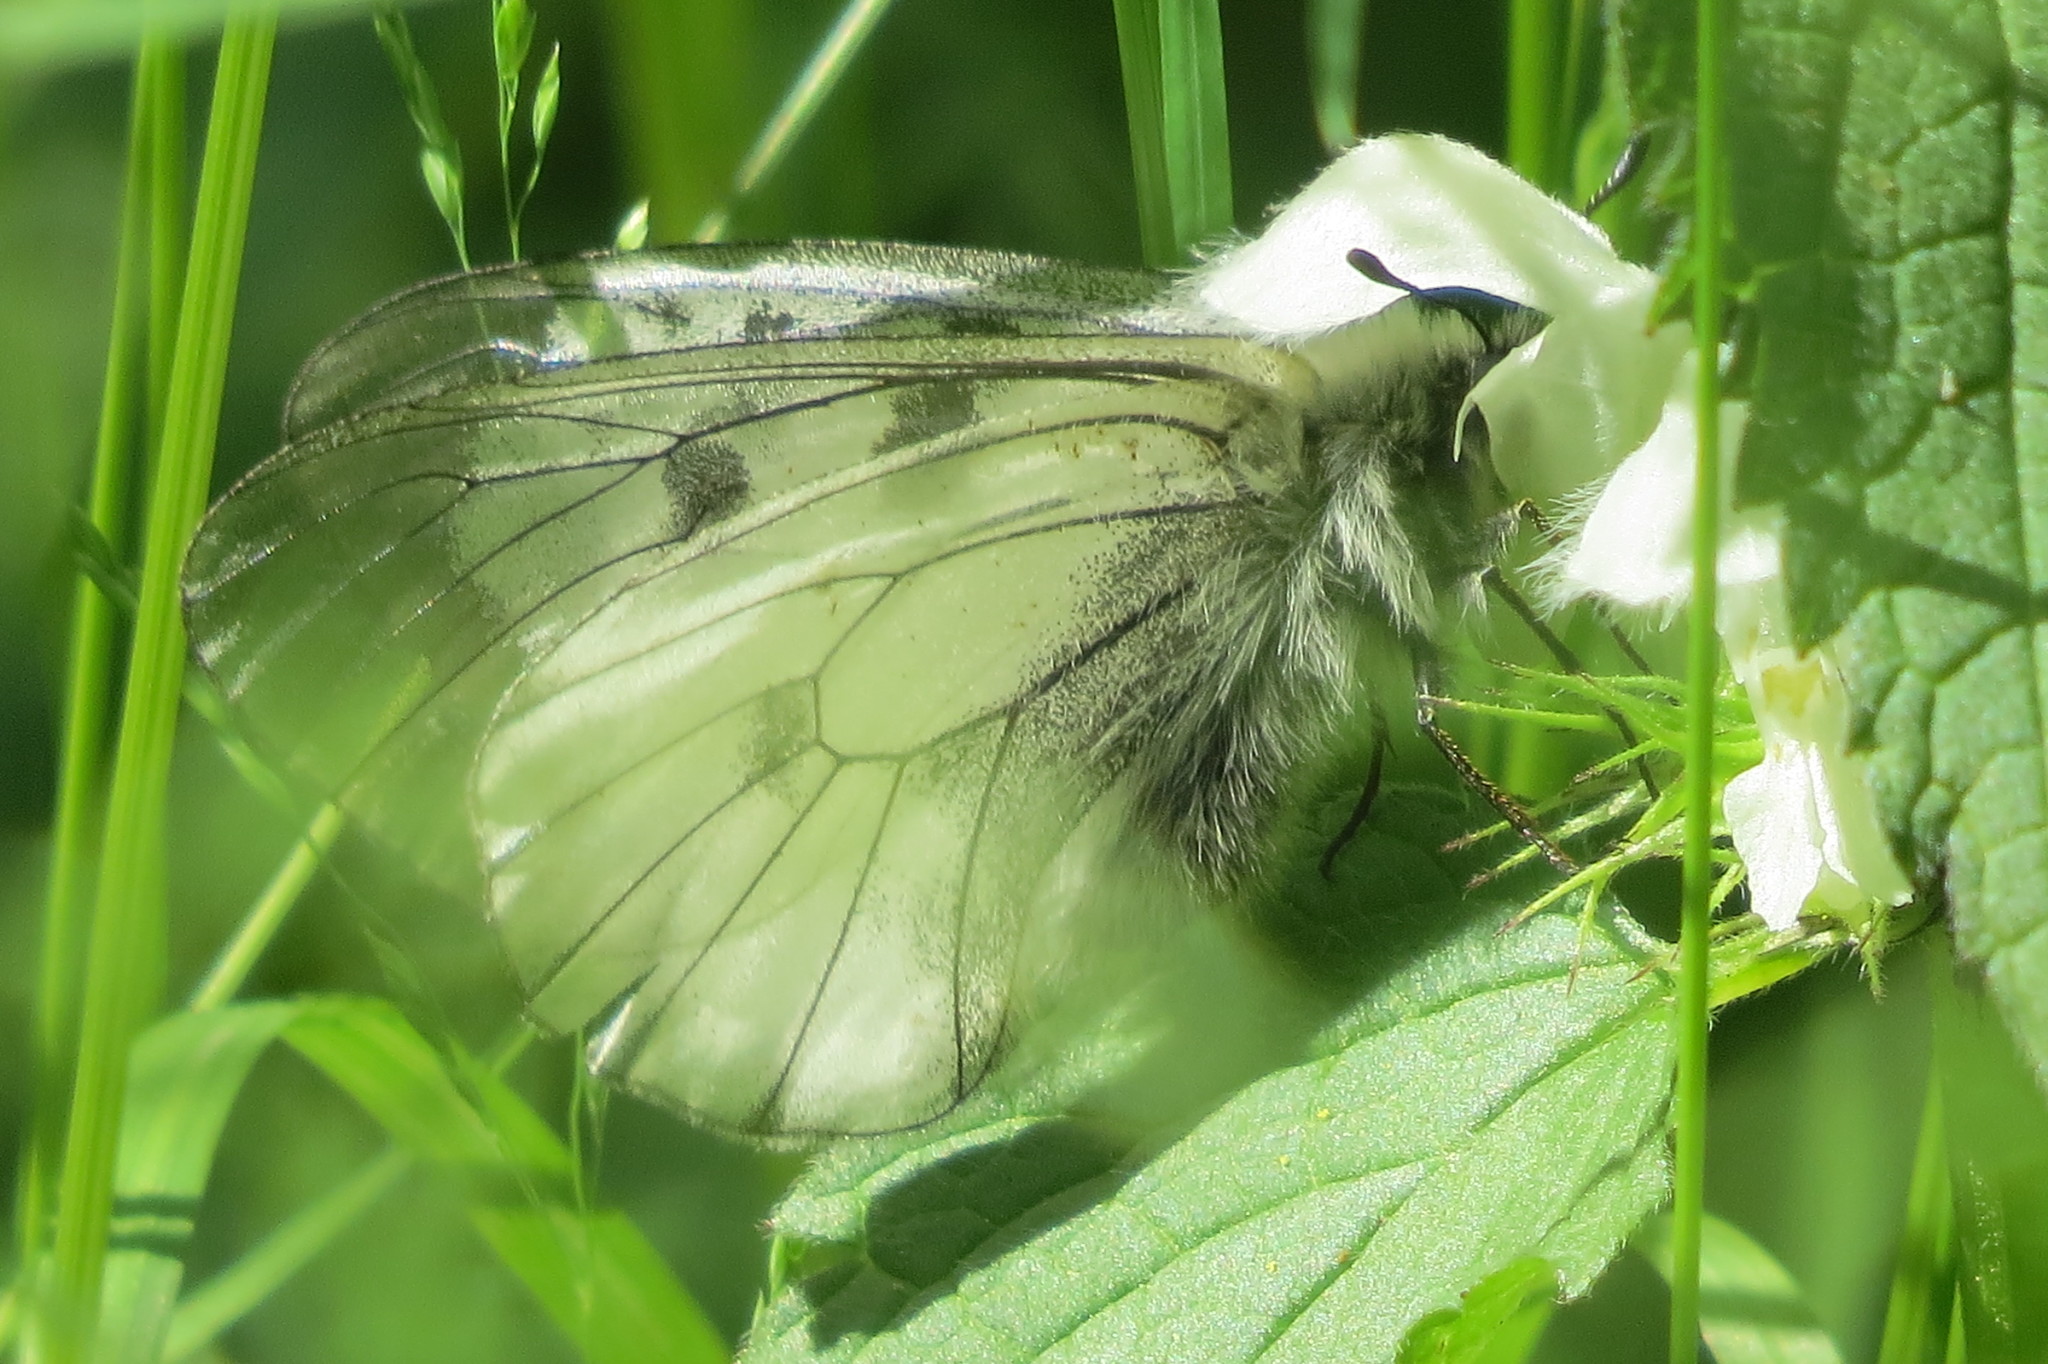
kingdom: Animalia
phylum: Arthropoda
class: Insecta
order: Lepidoptera
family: Papilionidae
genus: Parnassius
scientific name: Parnassius mnemosyne
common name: Clouded apollo
